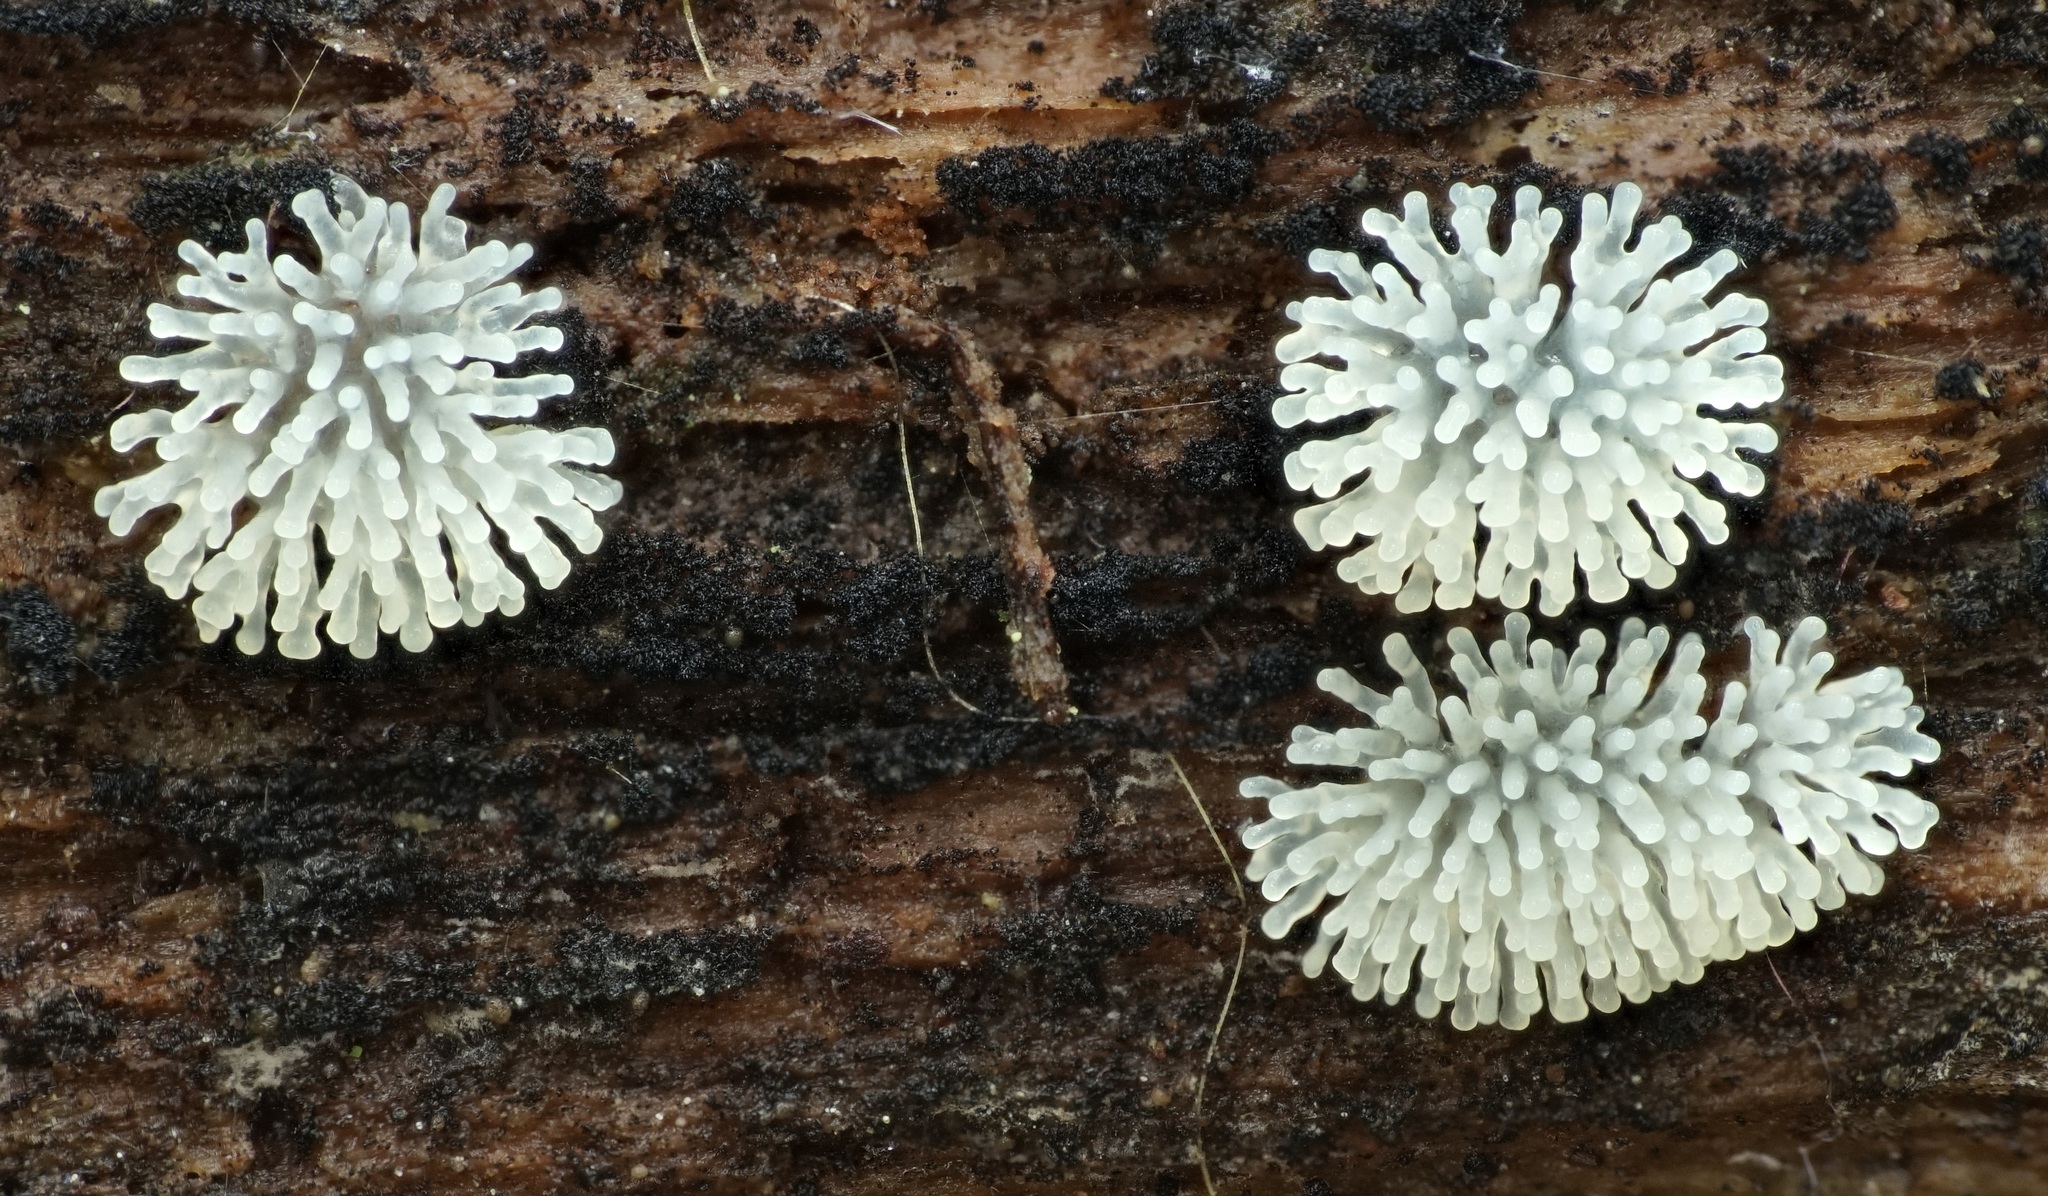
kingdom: Protozoa
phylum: Mycetozoa
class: Protosteliomycetes
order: Ceratiomyxales
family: Ceratiomyxaceae
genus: Ceratiomyxa
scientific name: Ceratiomyxa fruticulosa
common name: Honeycomb coral slime mold
